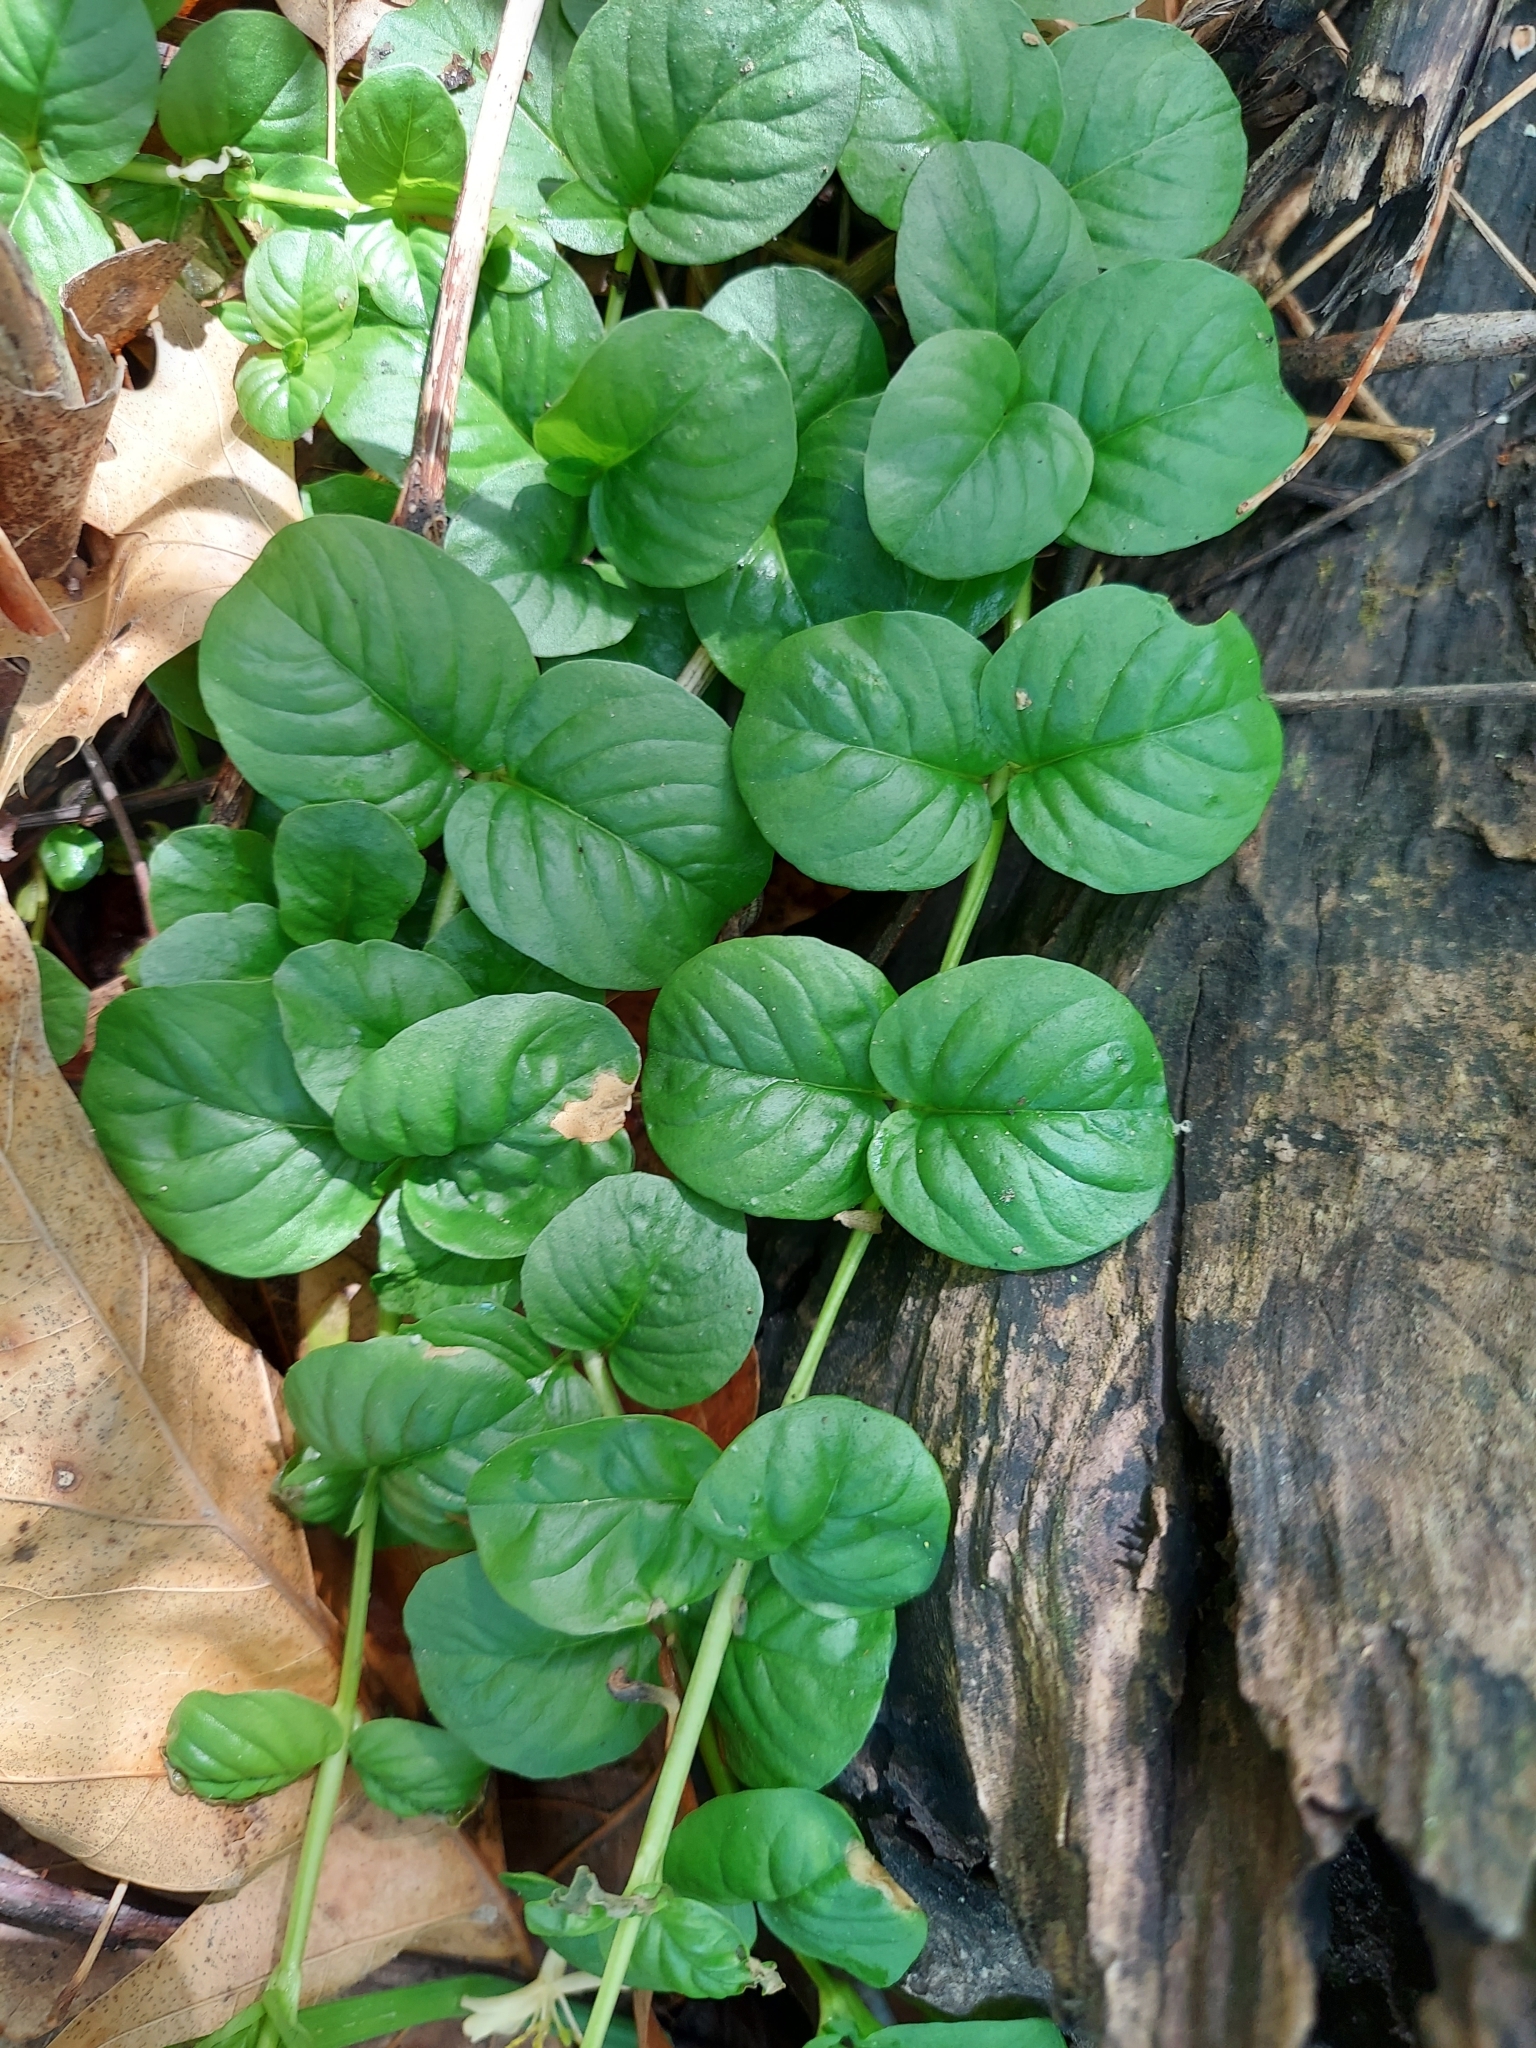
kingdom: Plantae
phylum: Tracheophyta
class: Magnoliopsida
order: Ericales
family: Primulaceae
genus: Lysimachia
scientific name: Lysimachia nummularia
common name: Moneywort
